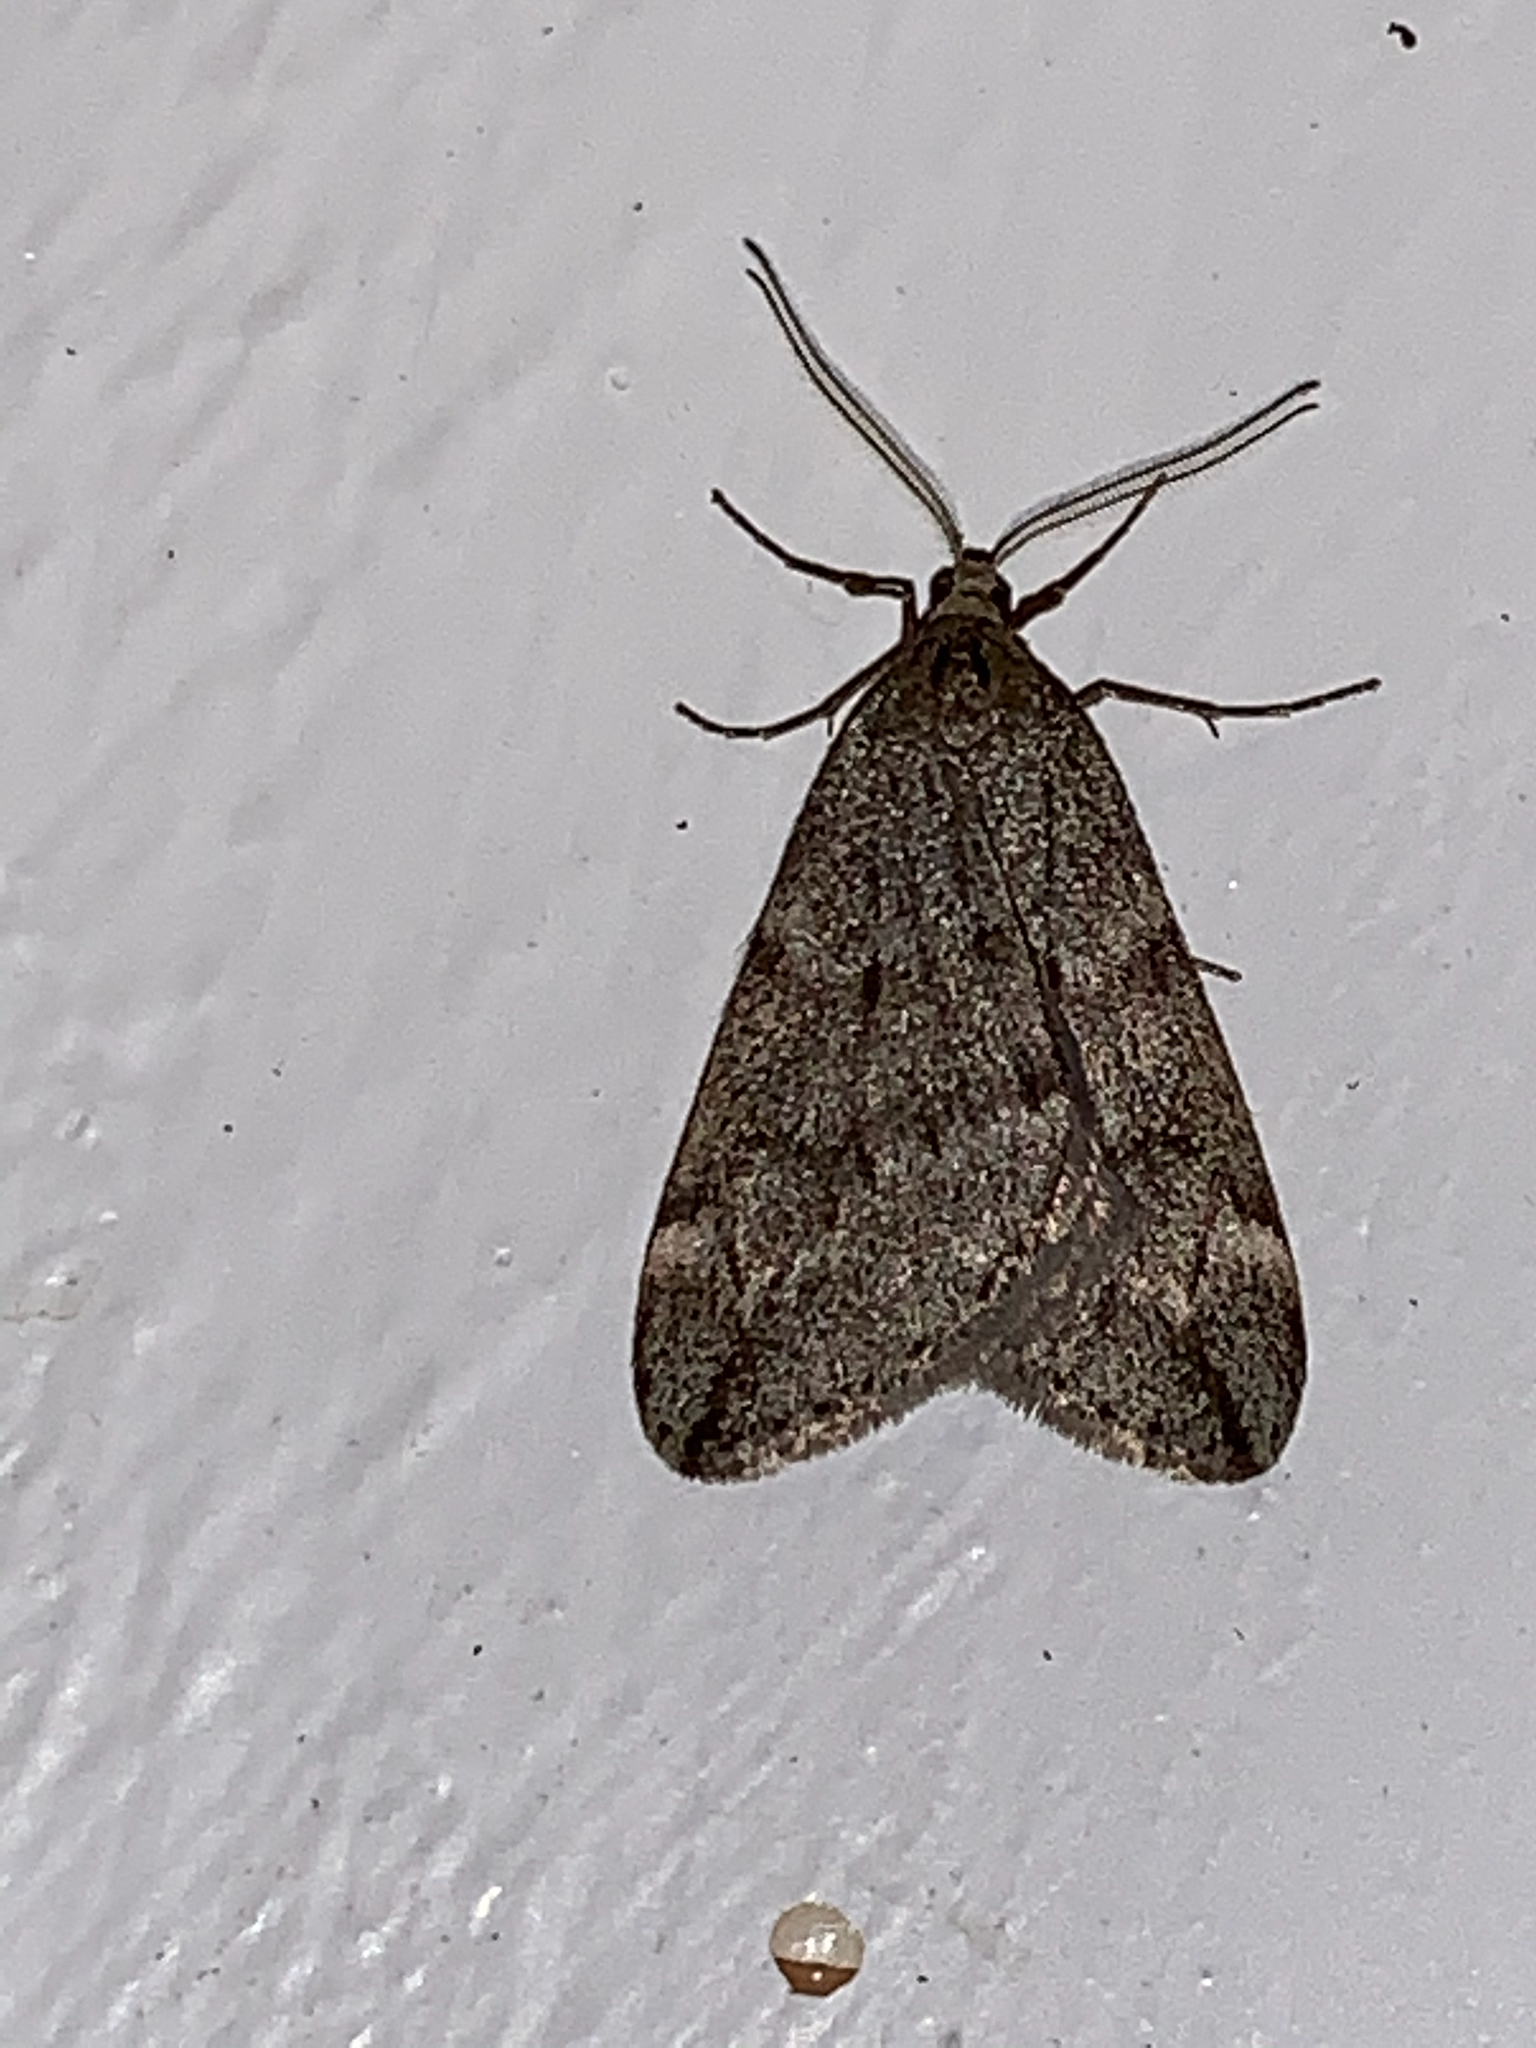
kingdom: Animalia
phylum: Arthropoda
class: Insecta
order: Lepidoptera
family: Geometridae
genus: Alsophila
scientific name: Alsophila pometaria
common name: Fall cankerworm
